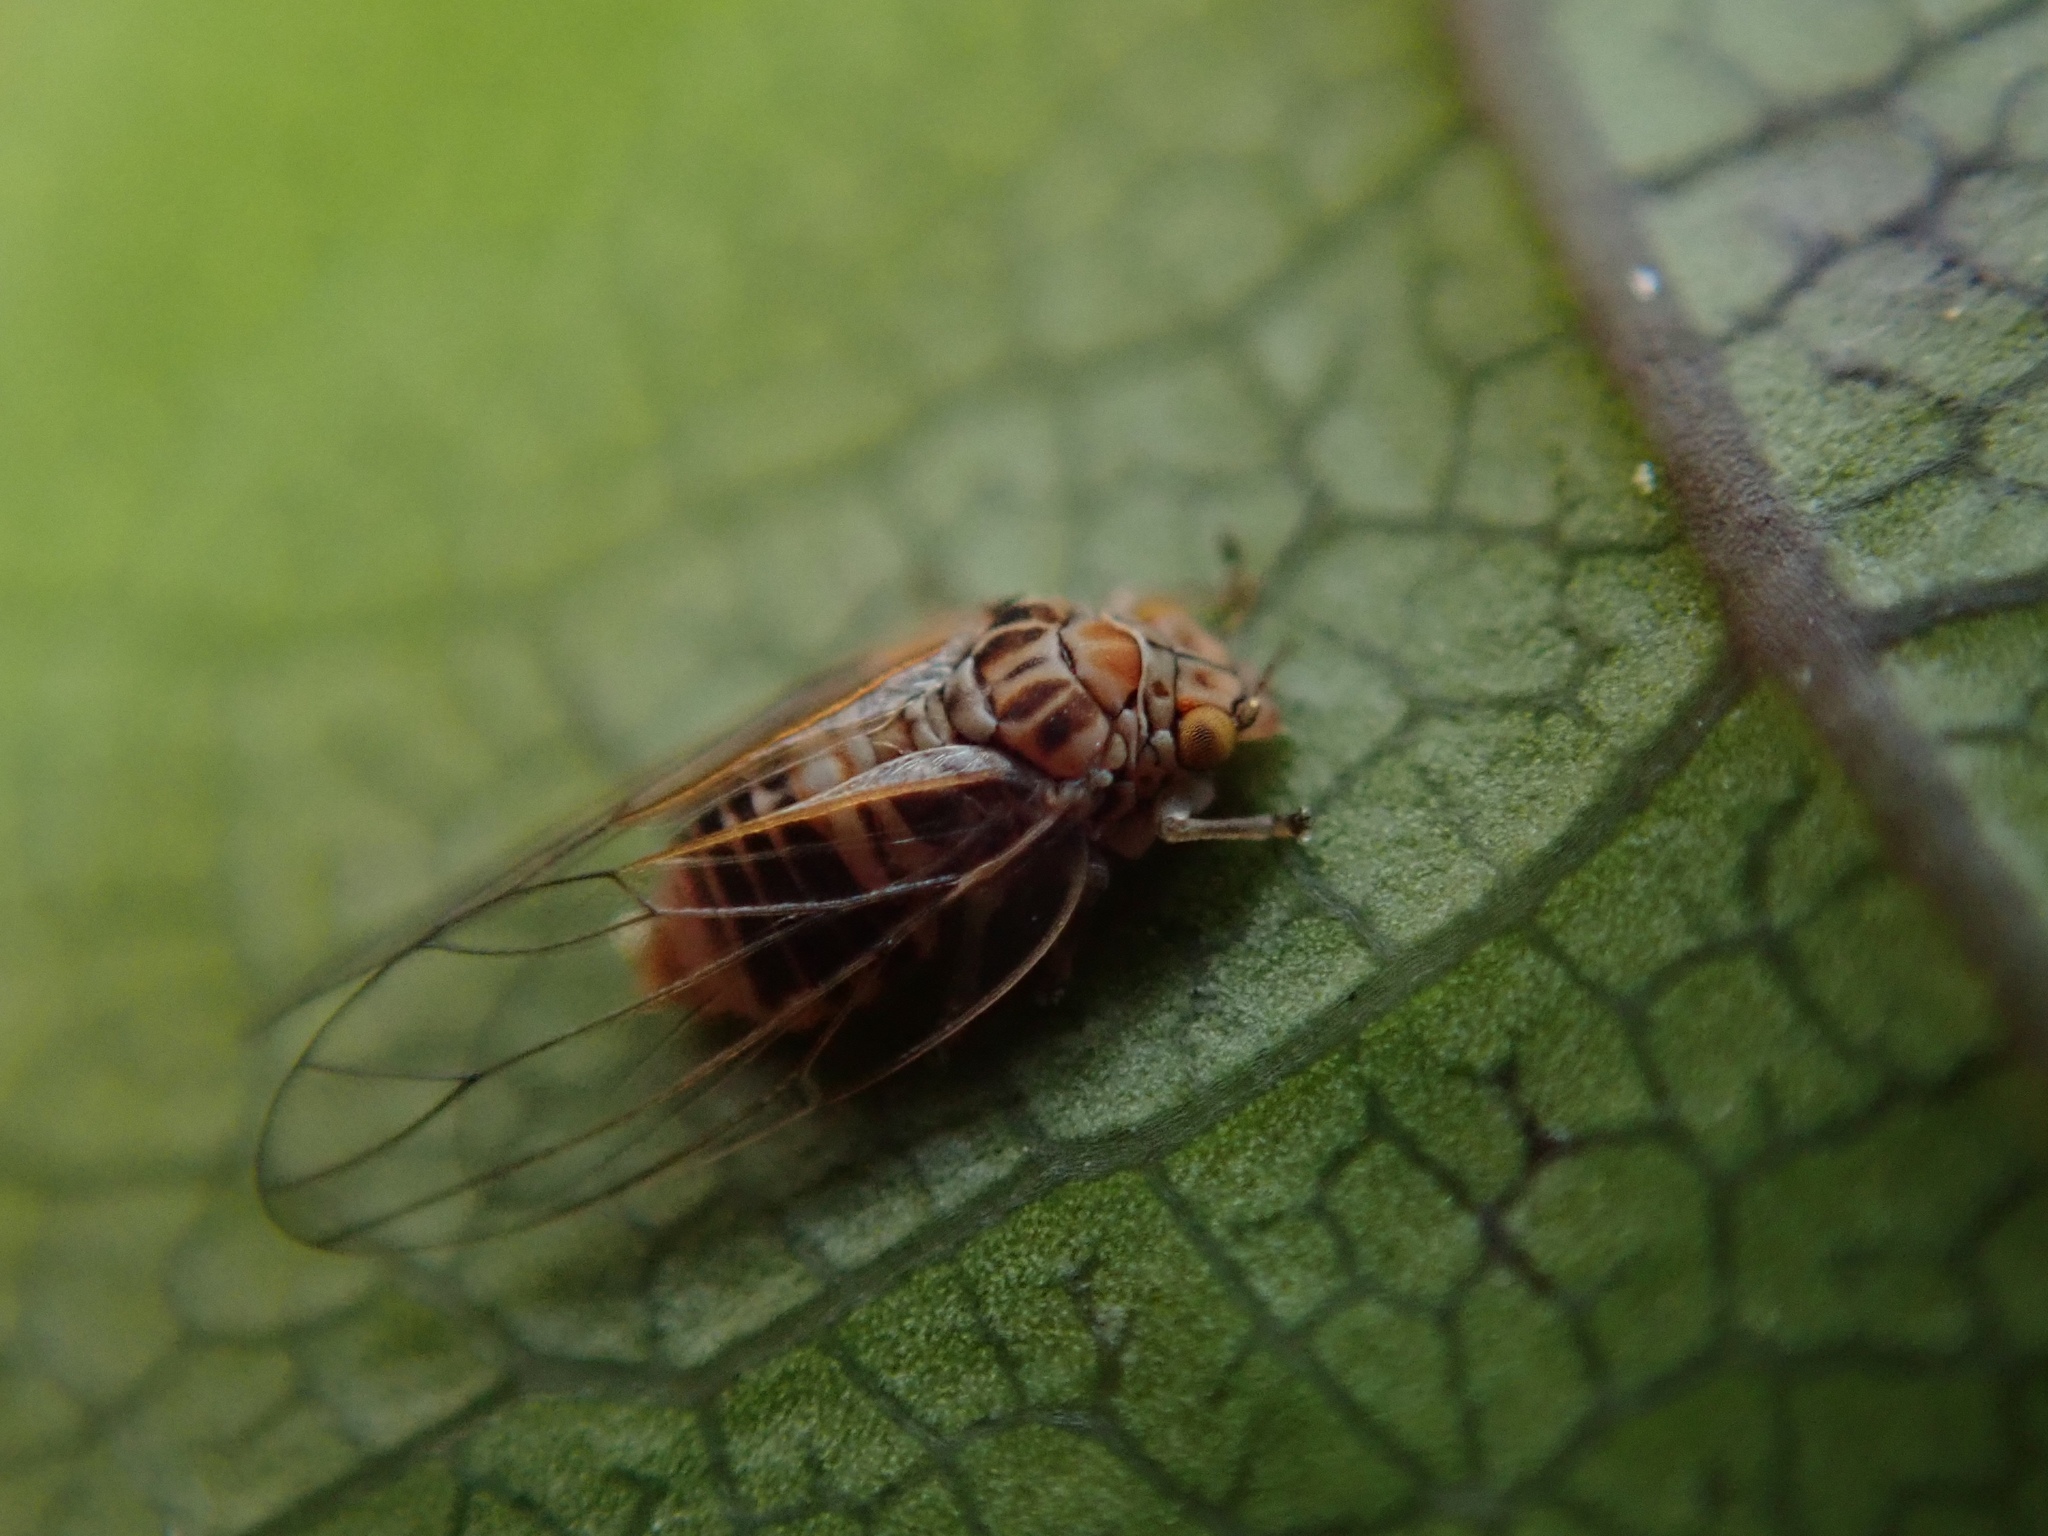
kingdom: Animalia
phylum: Arthropoda
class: Insecta
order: Hemiptera
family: Aphalaridae
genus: Cardiaspina
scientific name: Cardiaspina fiscella
